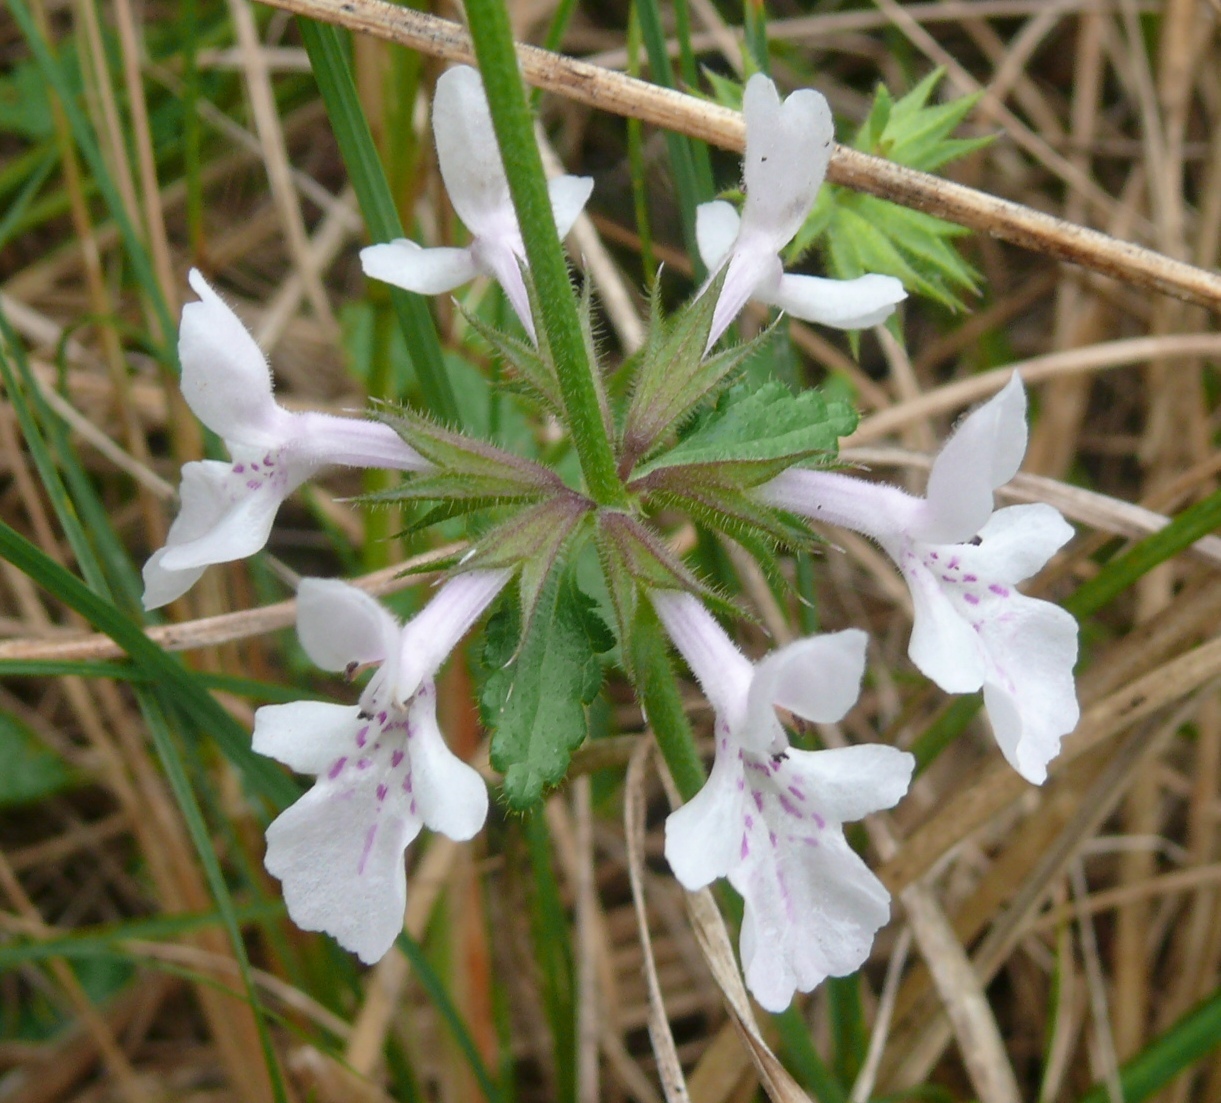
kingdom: Plantae
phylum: Tracheophyta
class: Magnoliopsida
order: Lamiales
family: Lamiaceae
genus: Stachys
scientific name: Stachys aethiopica
